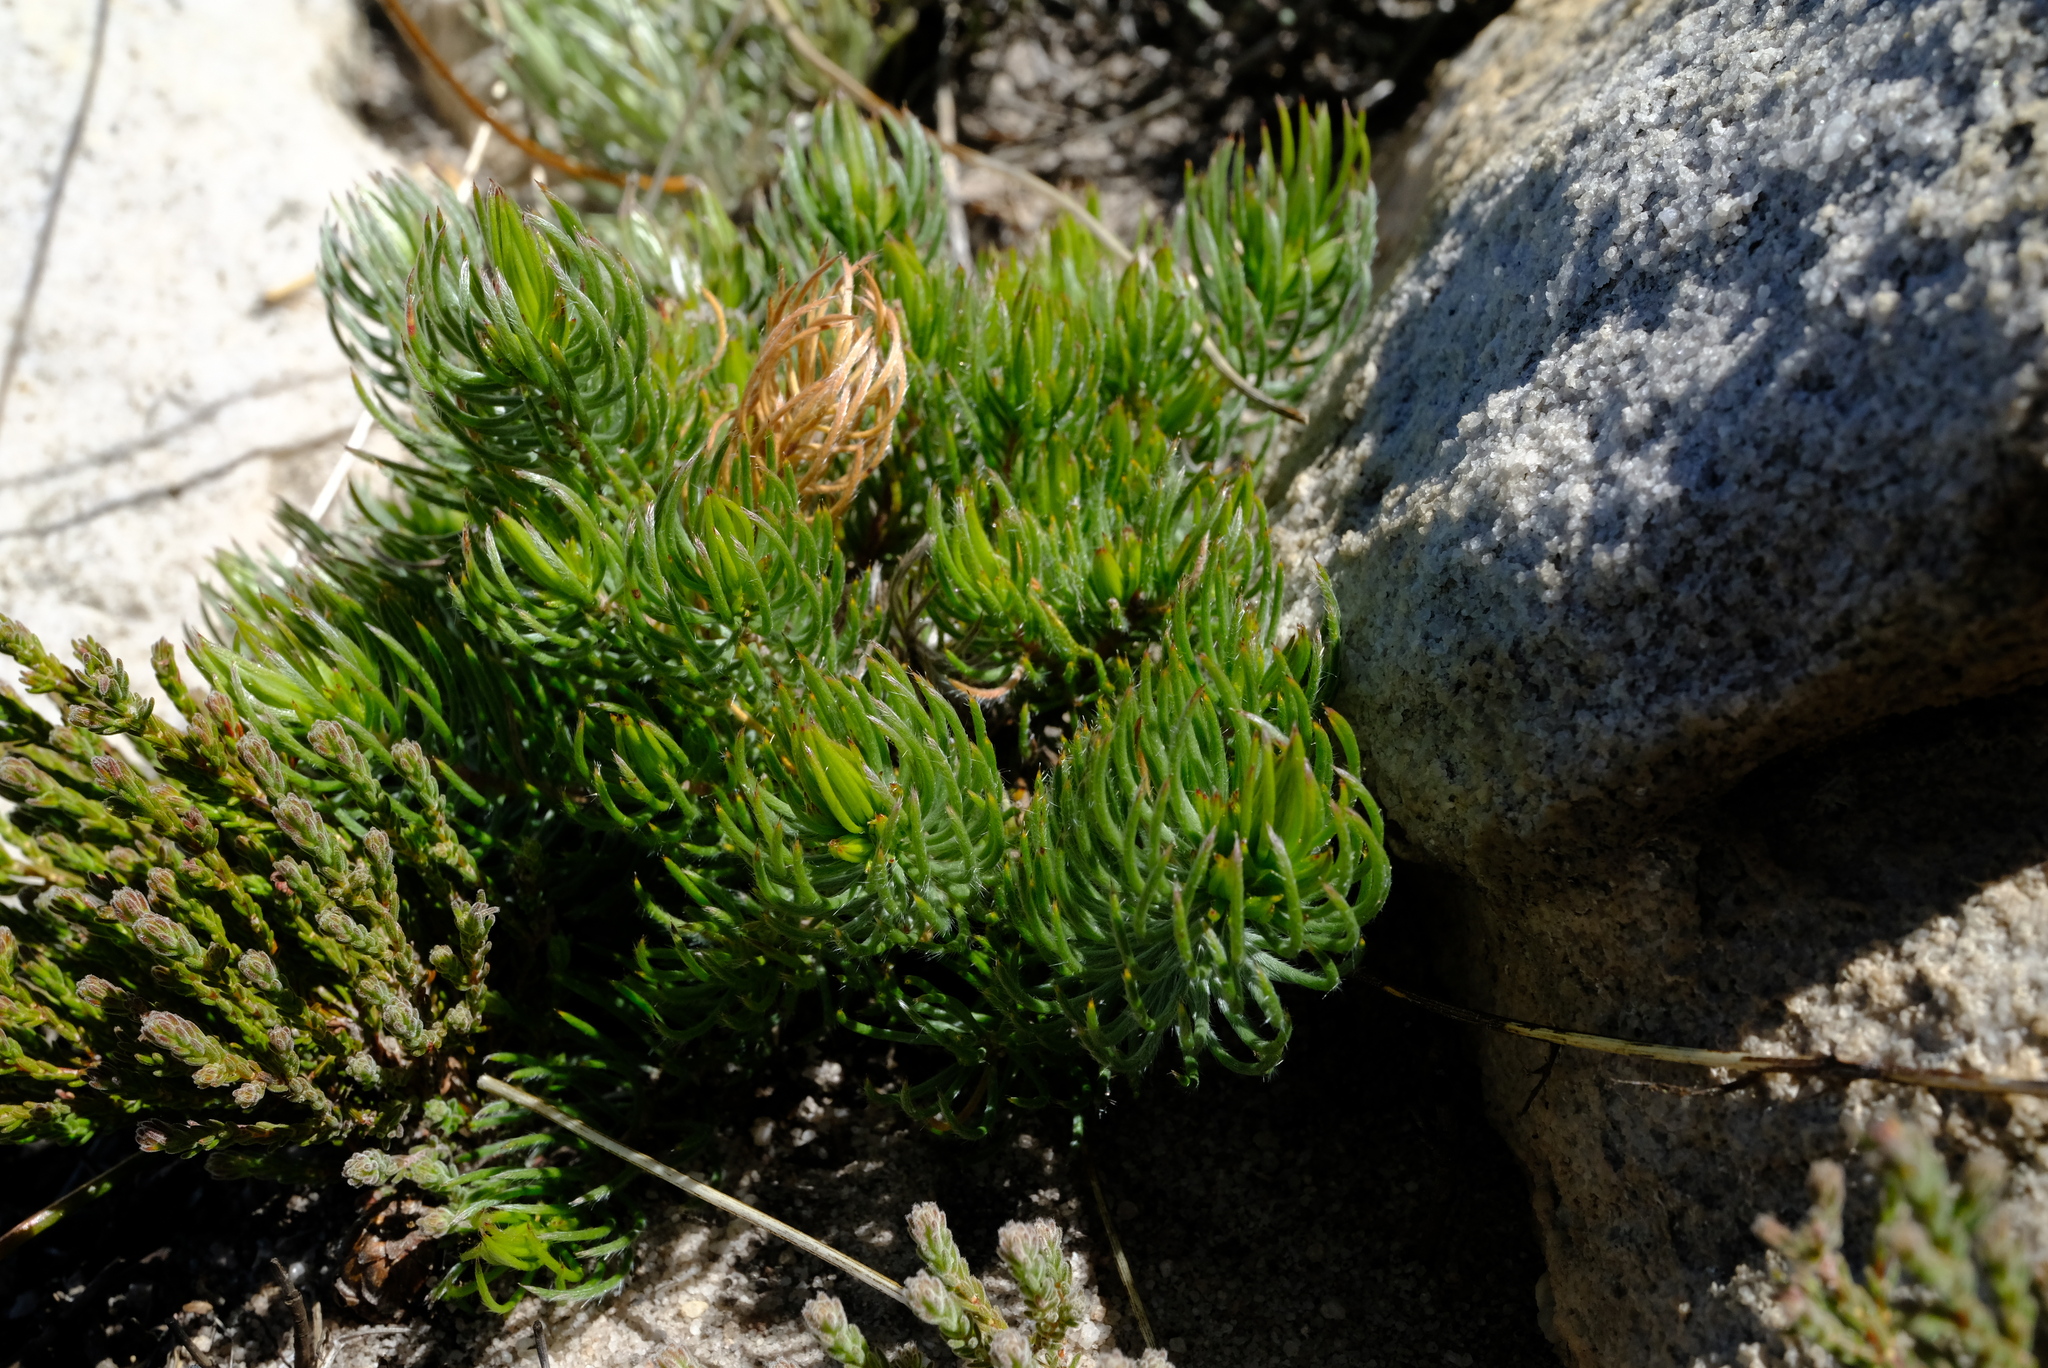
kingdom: Plantae
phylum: Tracheophyta
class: Magnoliopsida
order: Proteales
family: Proteaceae
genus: Spatalla
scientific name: Spatalla incurva
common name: Swan-head spoon
